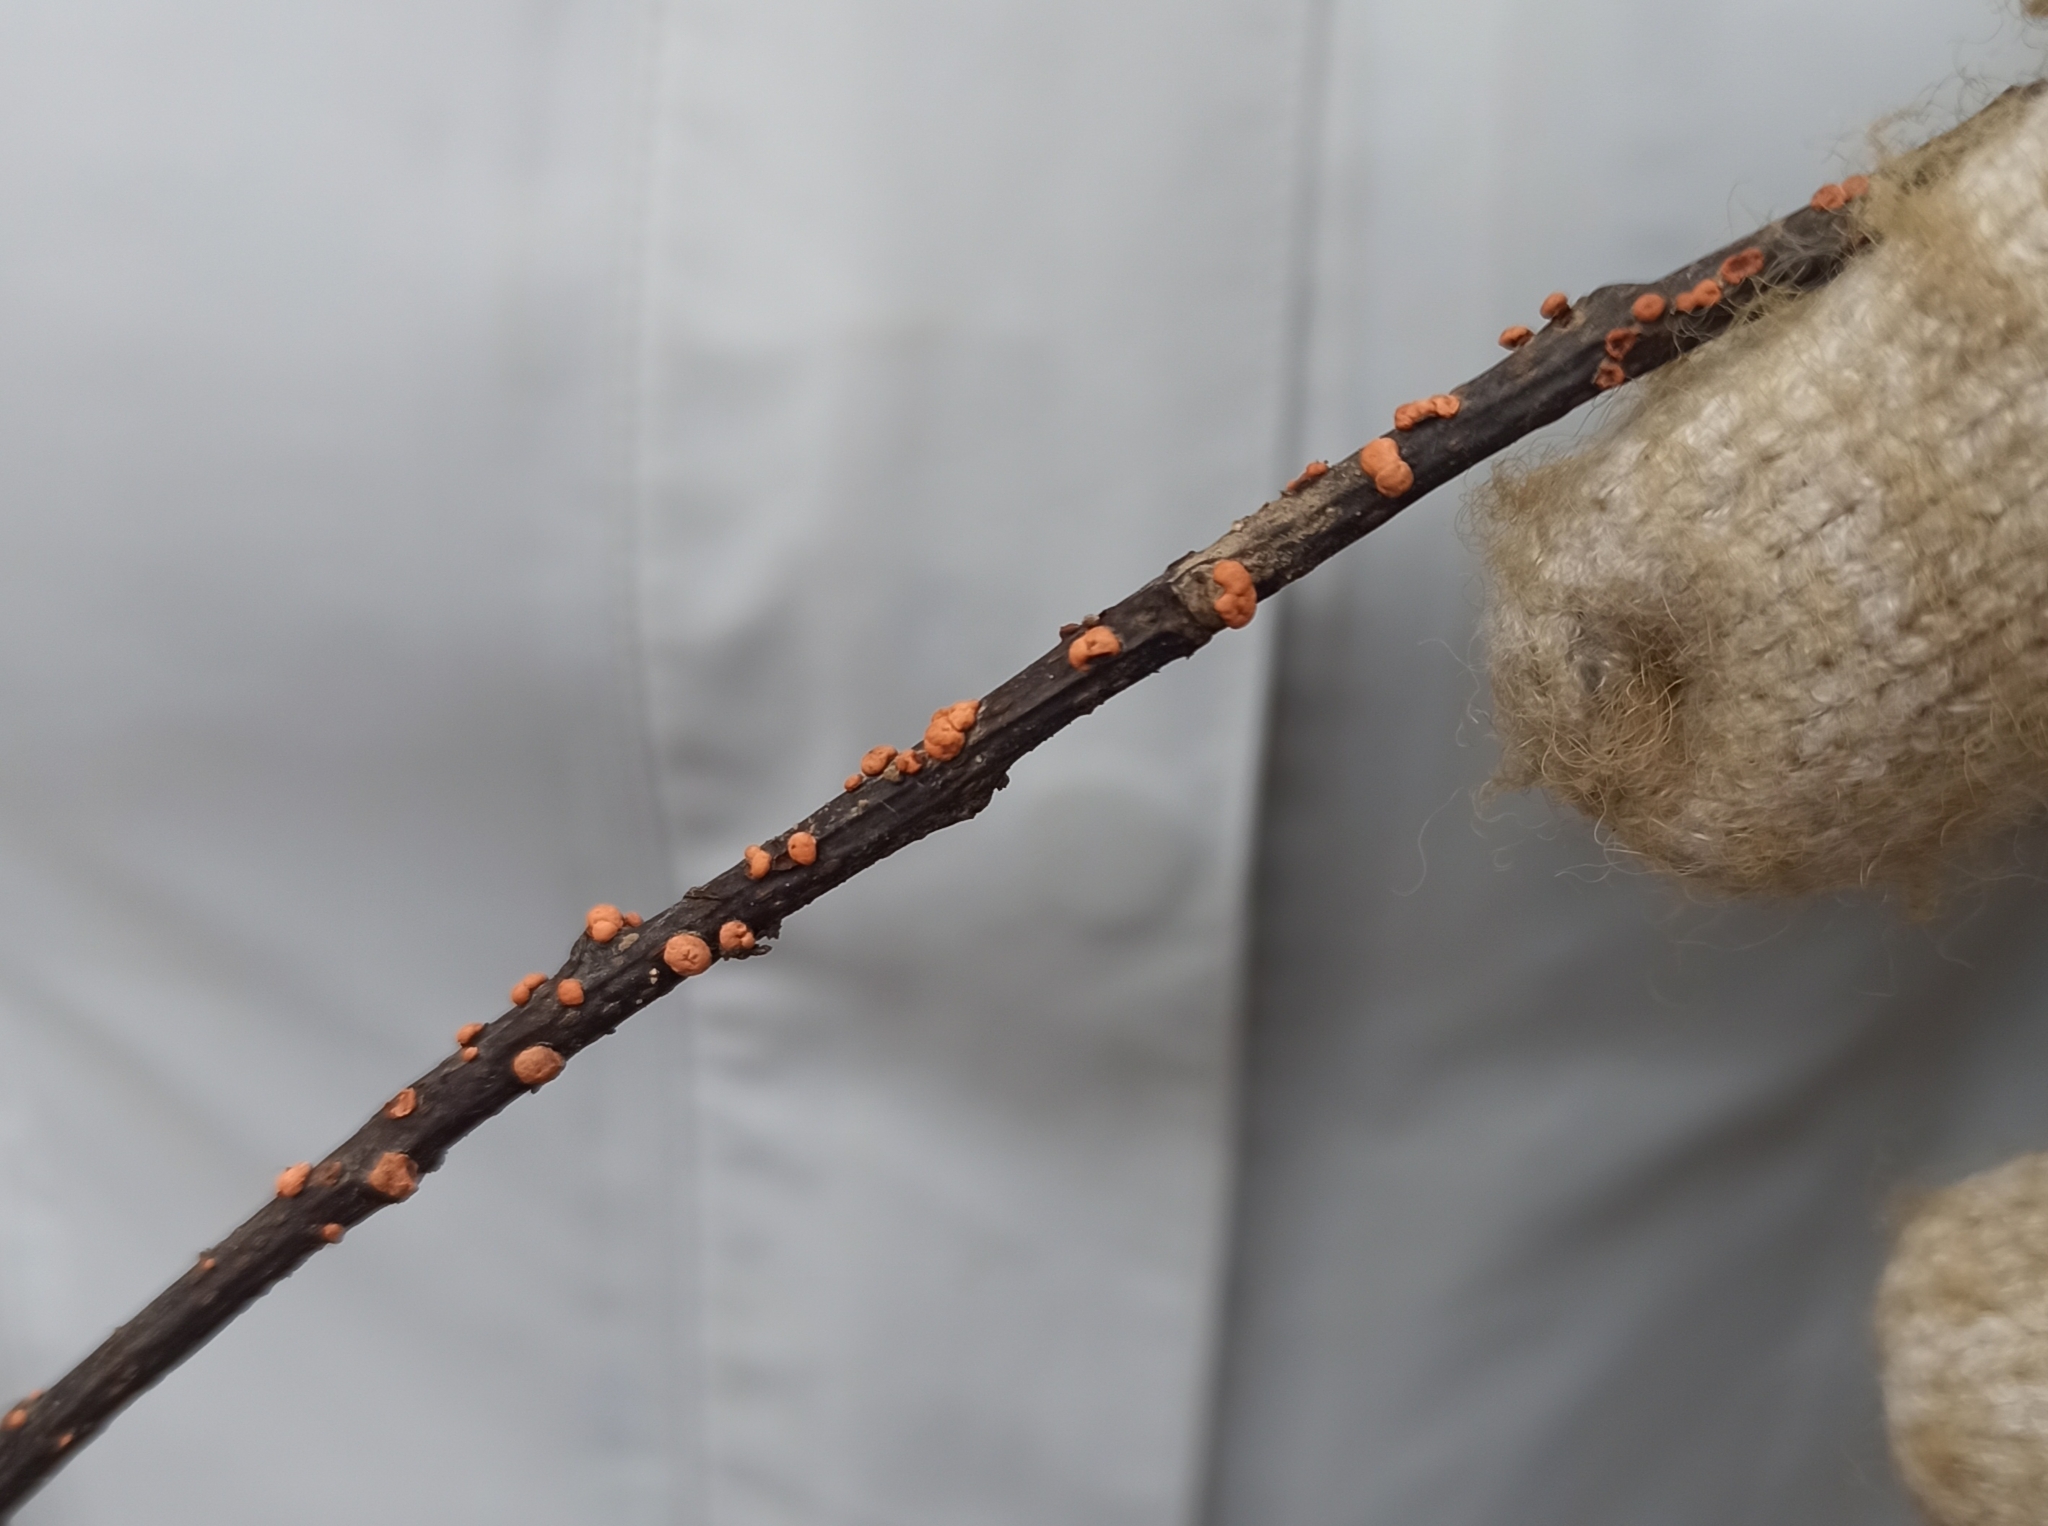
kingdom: Fungi
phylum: Ascomycota
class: Sordariomycetes
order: Hypocreales
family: Nectriaceae
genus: Nectria
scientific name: Nectria cinnabarina
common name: Coral spot
